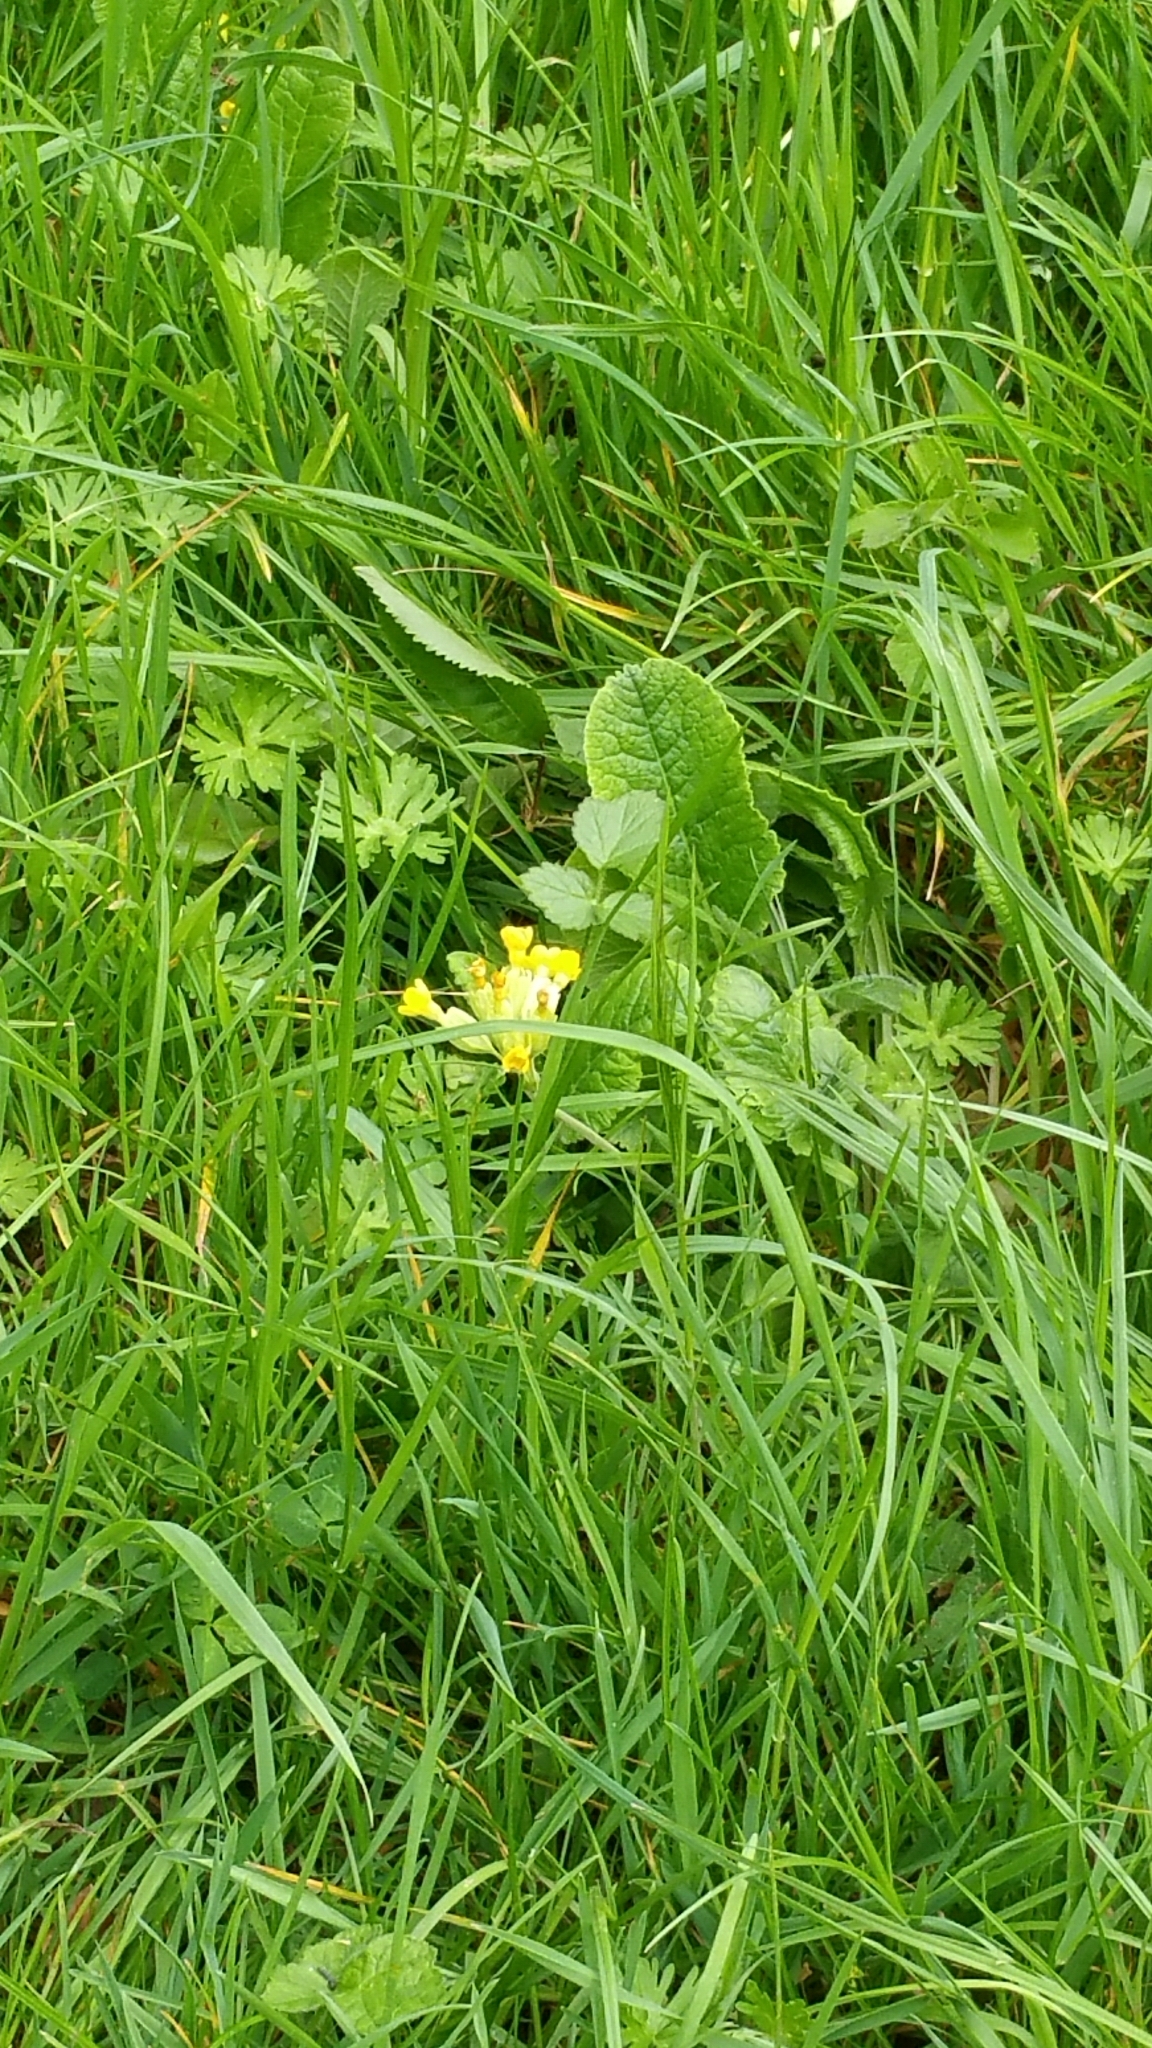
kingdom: Plantae
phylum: Tracheophyta
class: Magnoliopsida
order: Ericales
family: Primulaceae
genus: Primula
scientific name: Primula veris
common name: Cowslip
